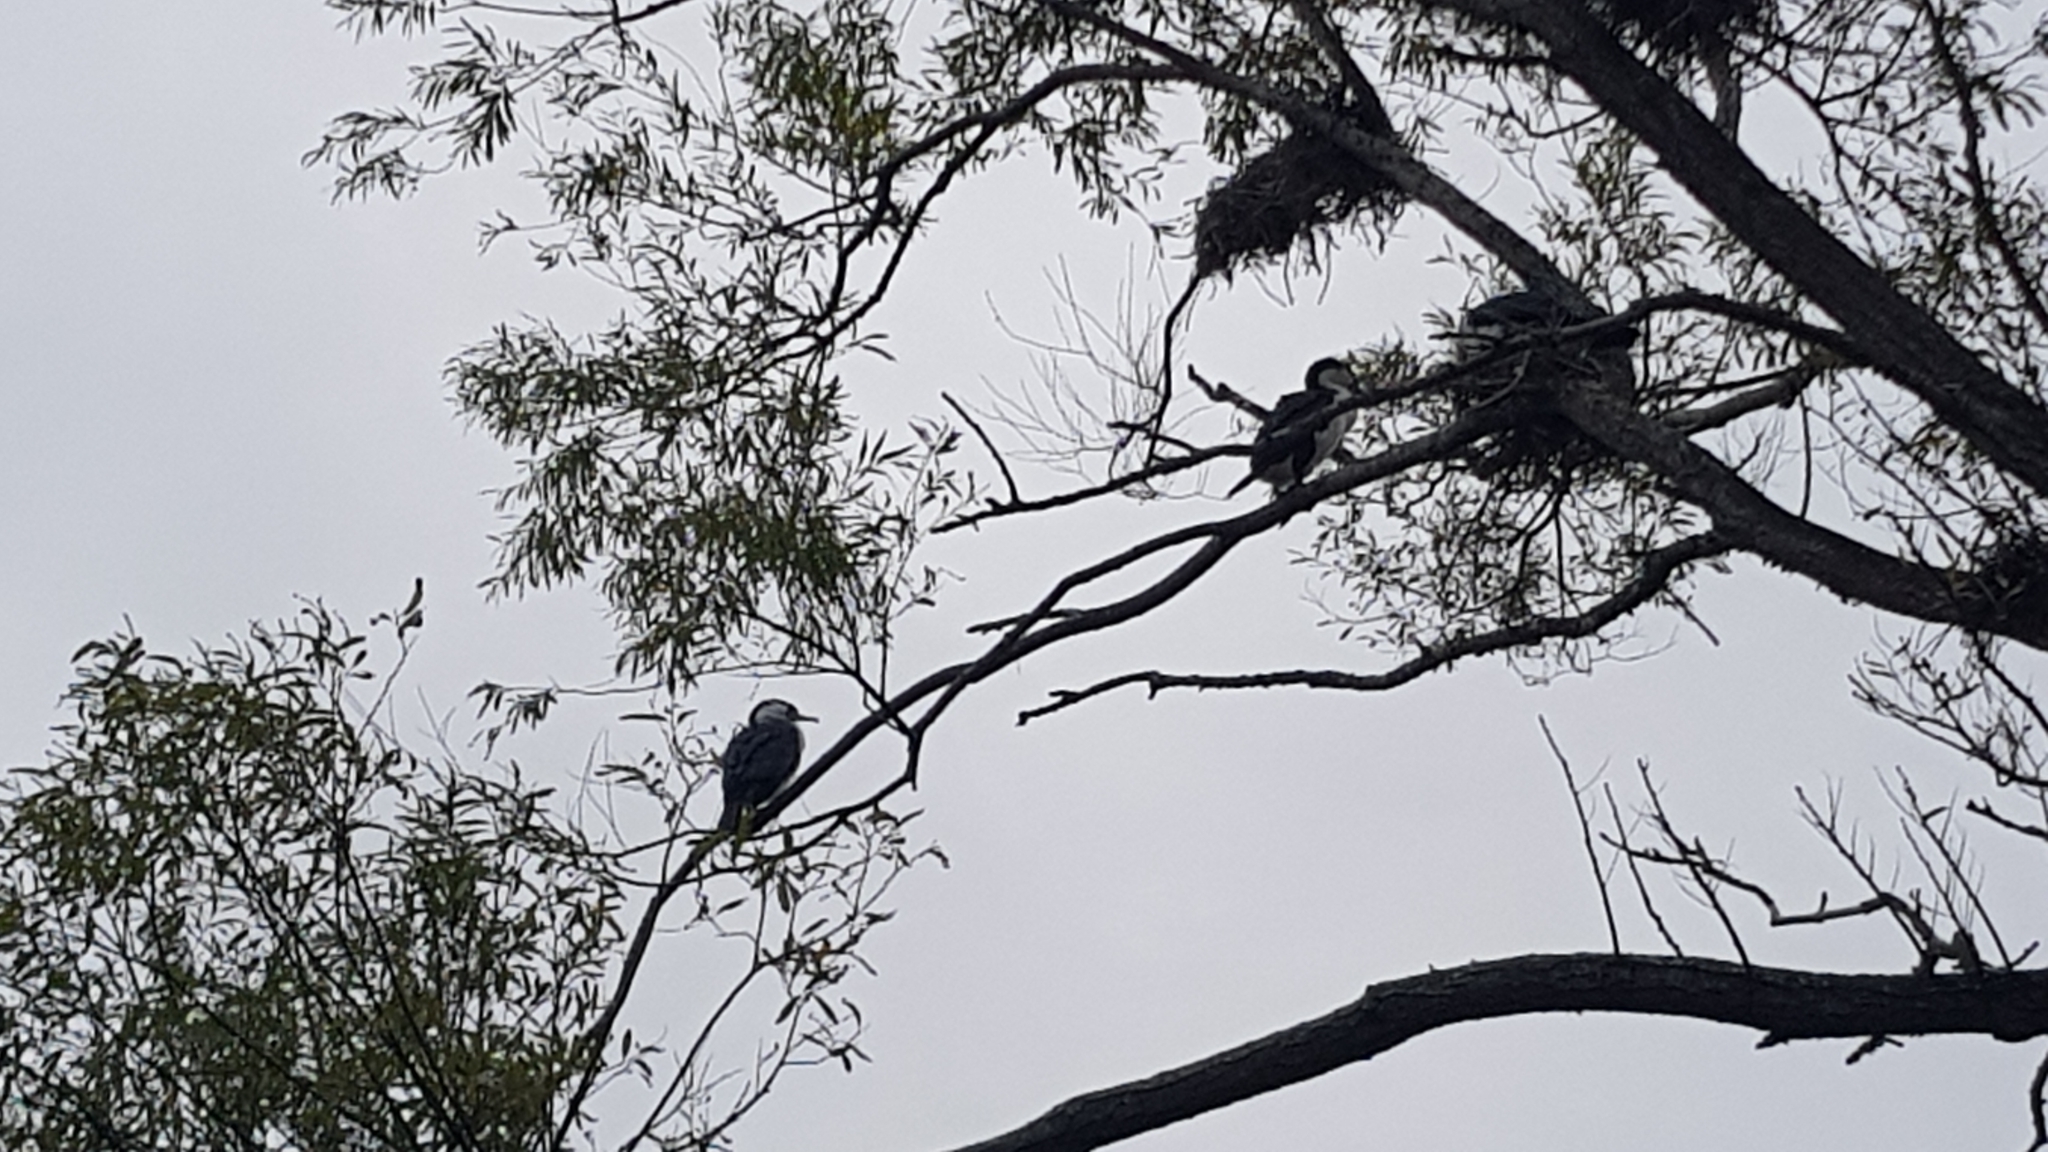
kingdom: Animalia
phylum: Chordata
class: Aves
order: Suliformes
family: Phalacrocoracidae
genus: Phalacrocorax
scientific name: Phalacrocorax varius
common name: Pied cormorant
